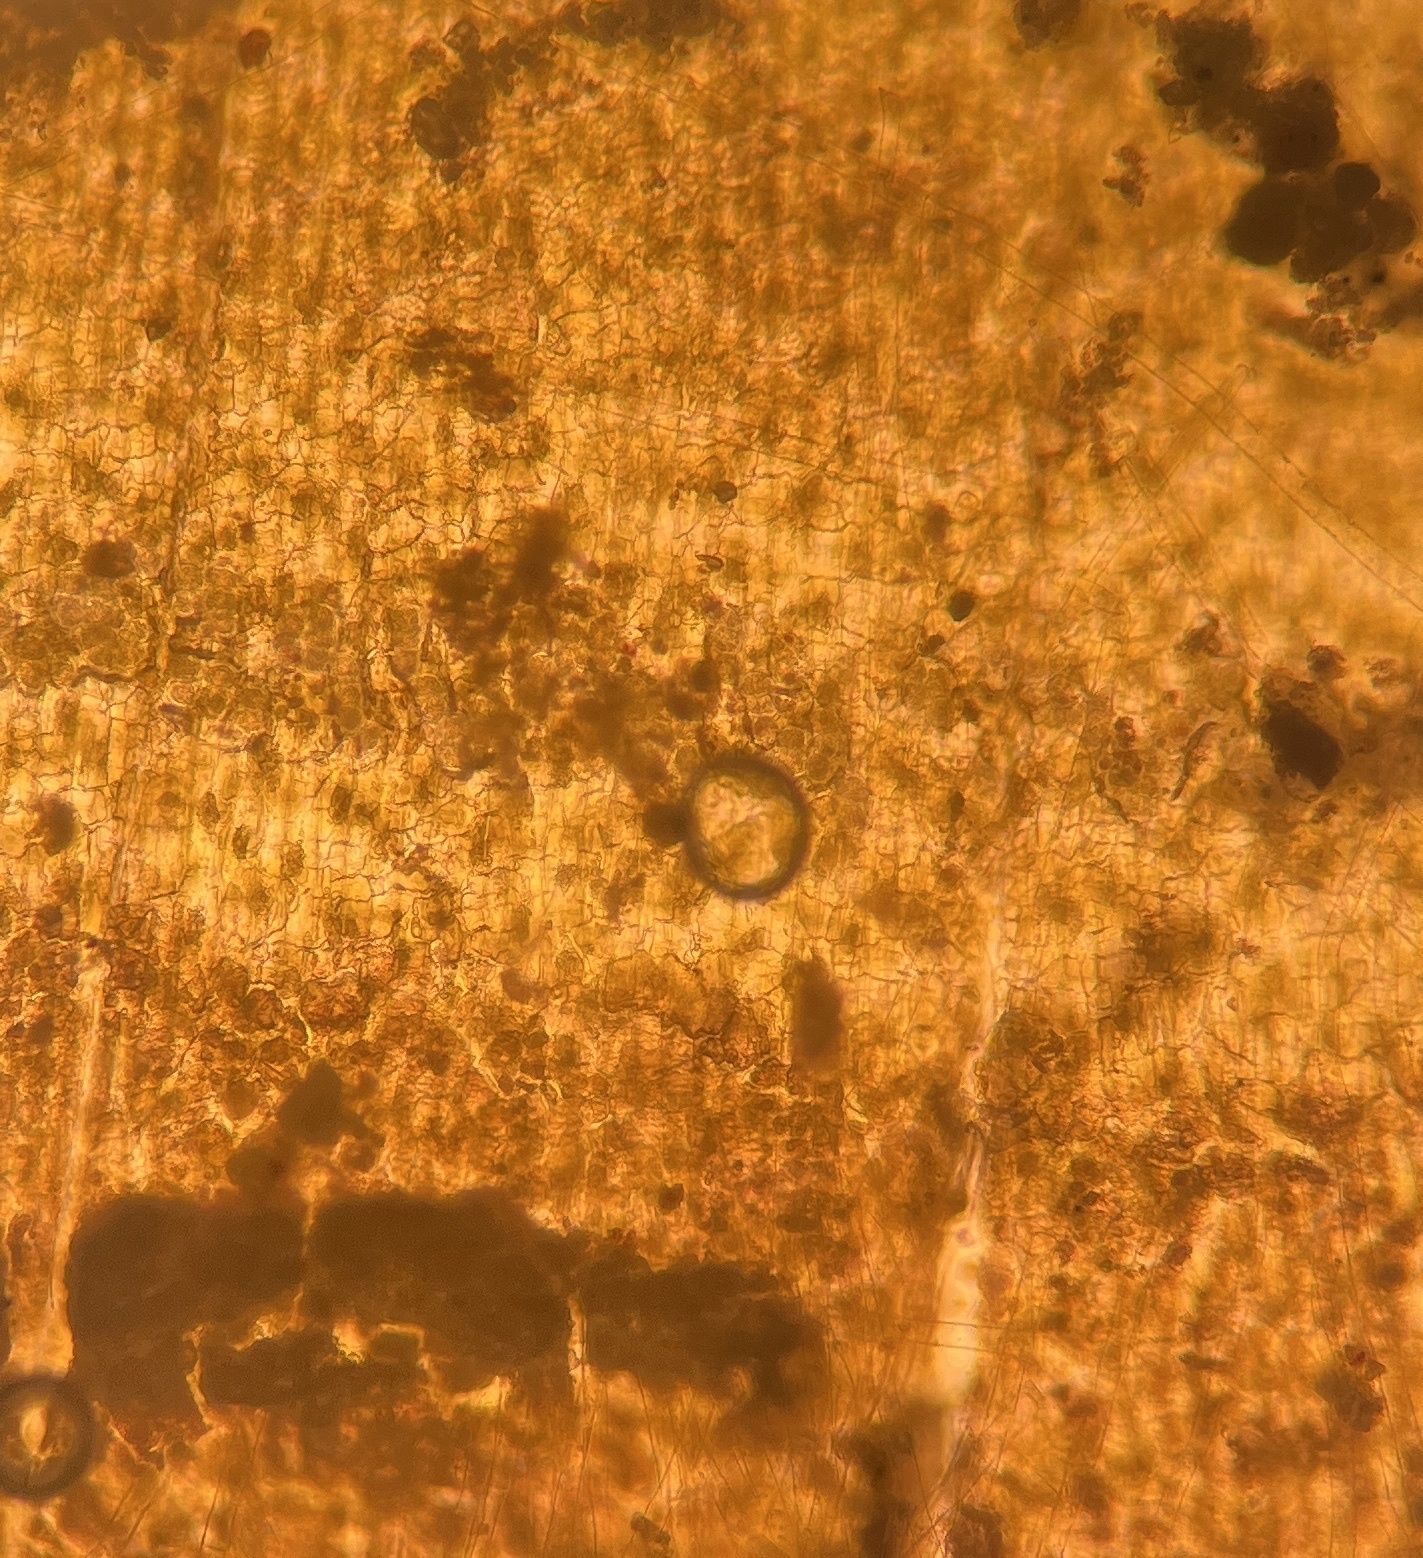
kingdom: Chromista
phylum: Ochrophyta
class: Phaeophyceae
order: Dictyotales
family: Dictyotaceae
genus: Padina
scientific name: Padina sanctae-crucis
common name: White scroll algae
